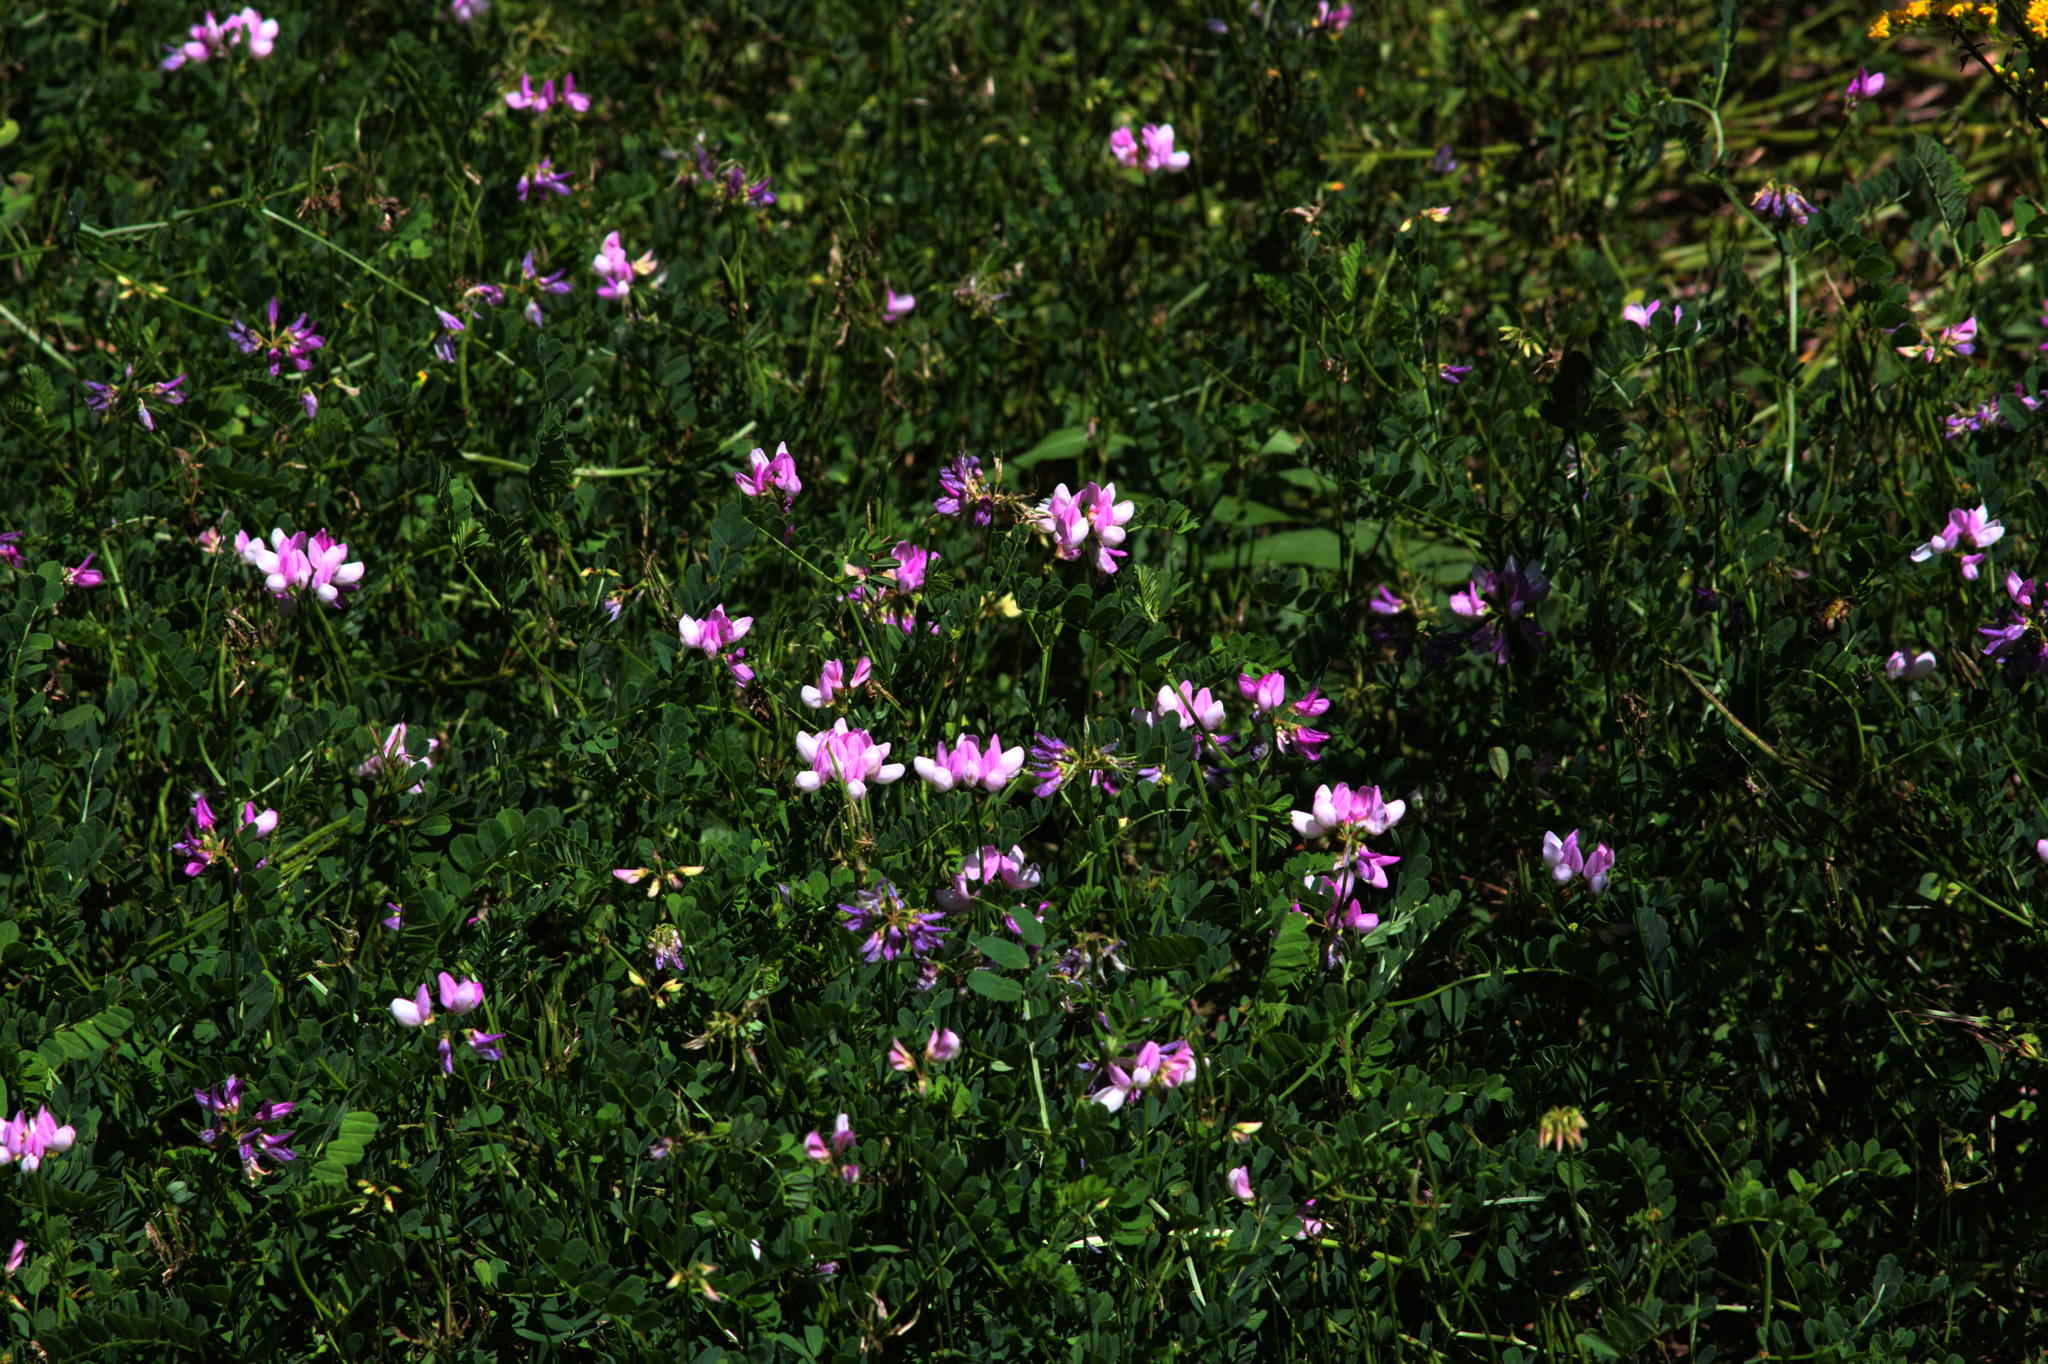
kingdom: Plantae
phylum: Tracheophyta
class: Magnoliopsida
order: Fabales
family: Fabaceae
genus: Coronilla
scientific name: Coronilla varia
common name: Crownvetch
